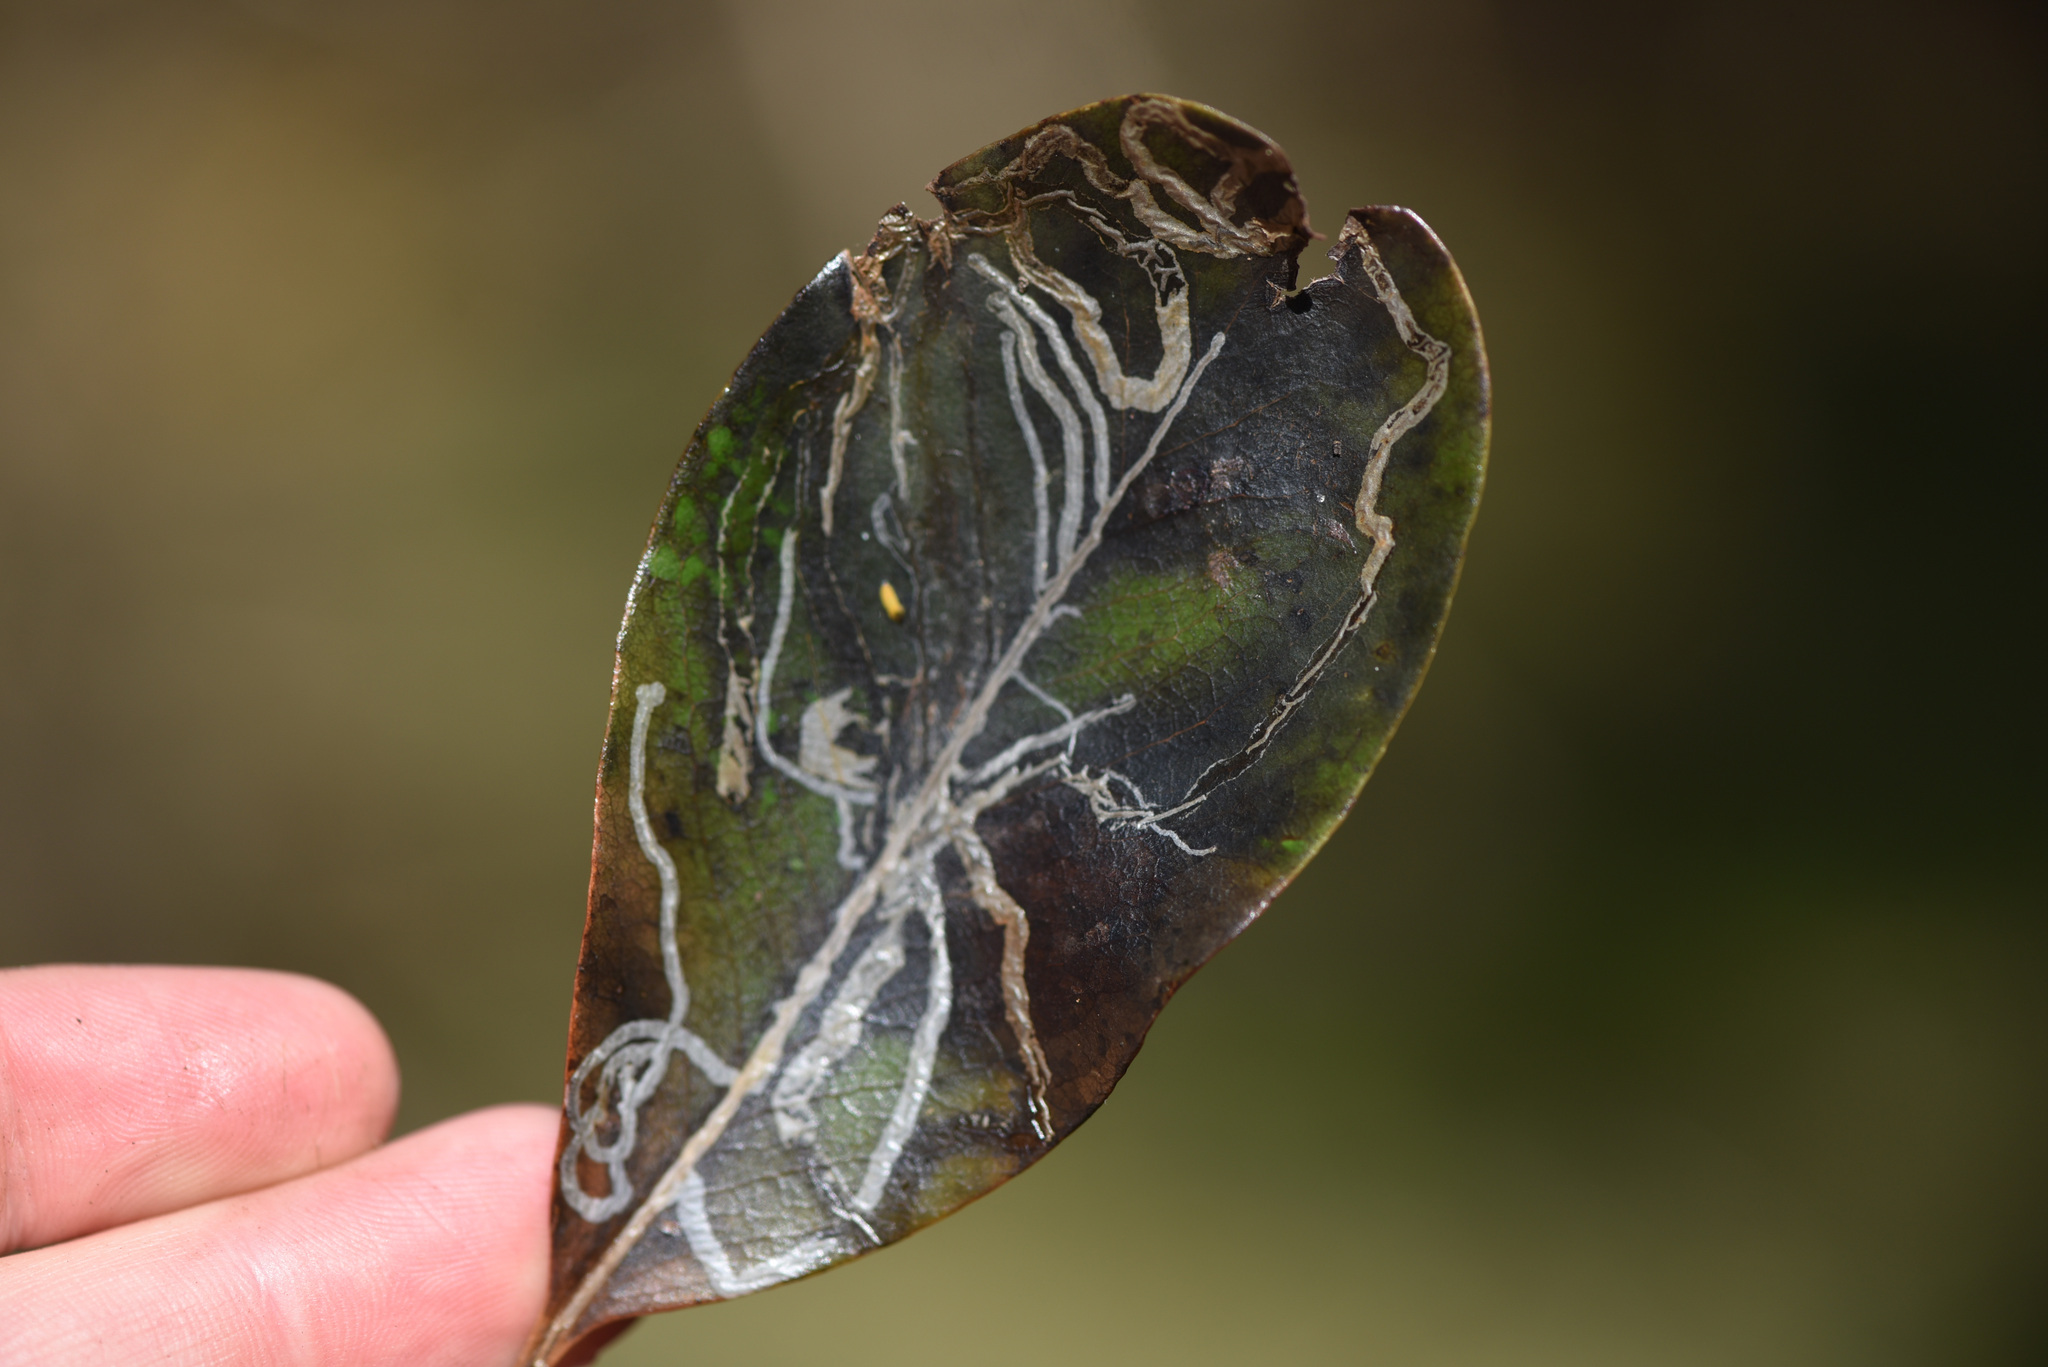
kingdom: Animalia
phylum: Arthropoda
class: Insecta
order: Lepidoptera
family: Gracillariidae
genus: Marmara
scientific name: Marmara arbutiella
